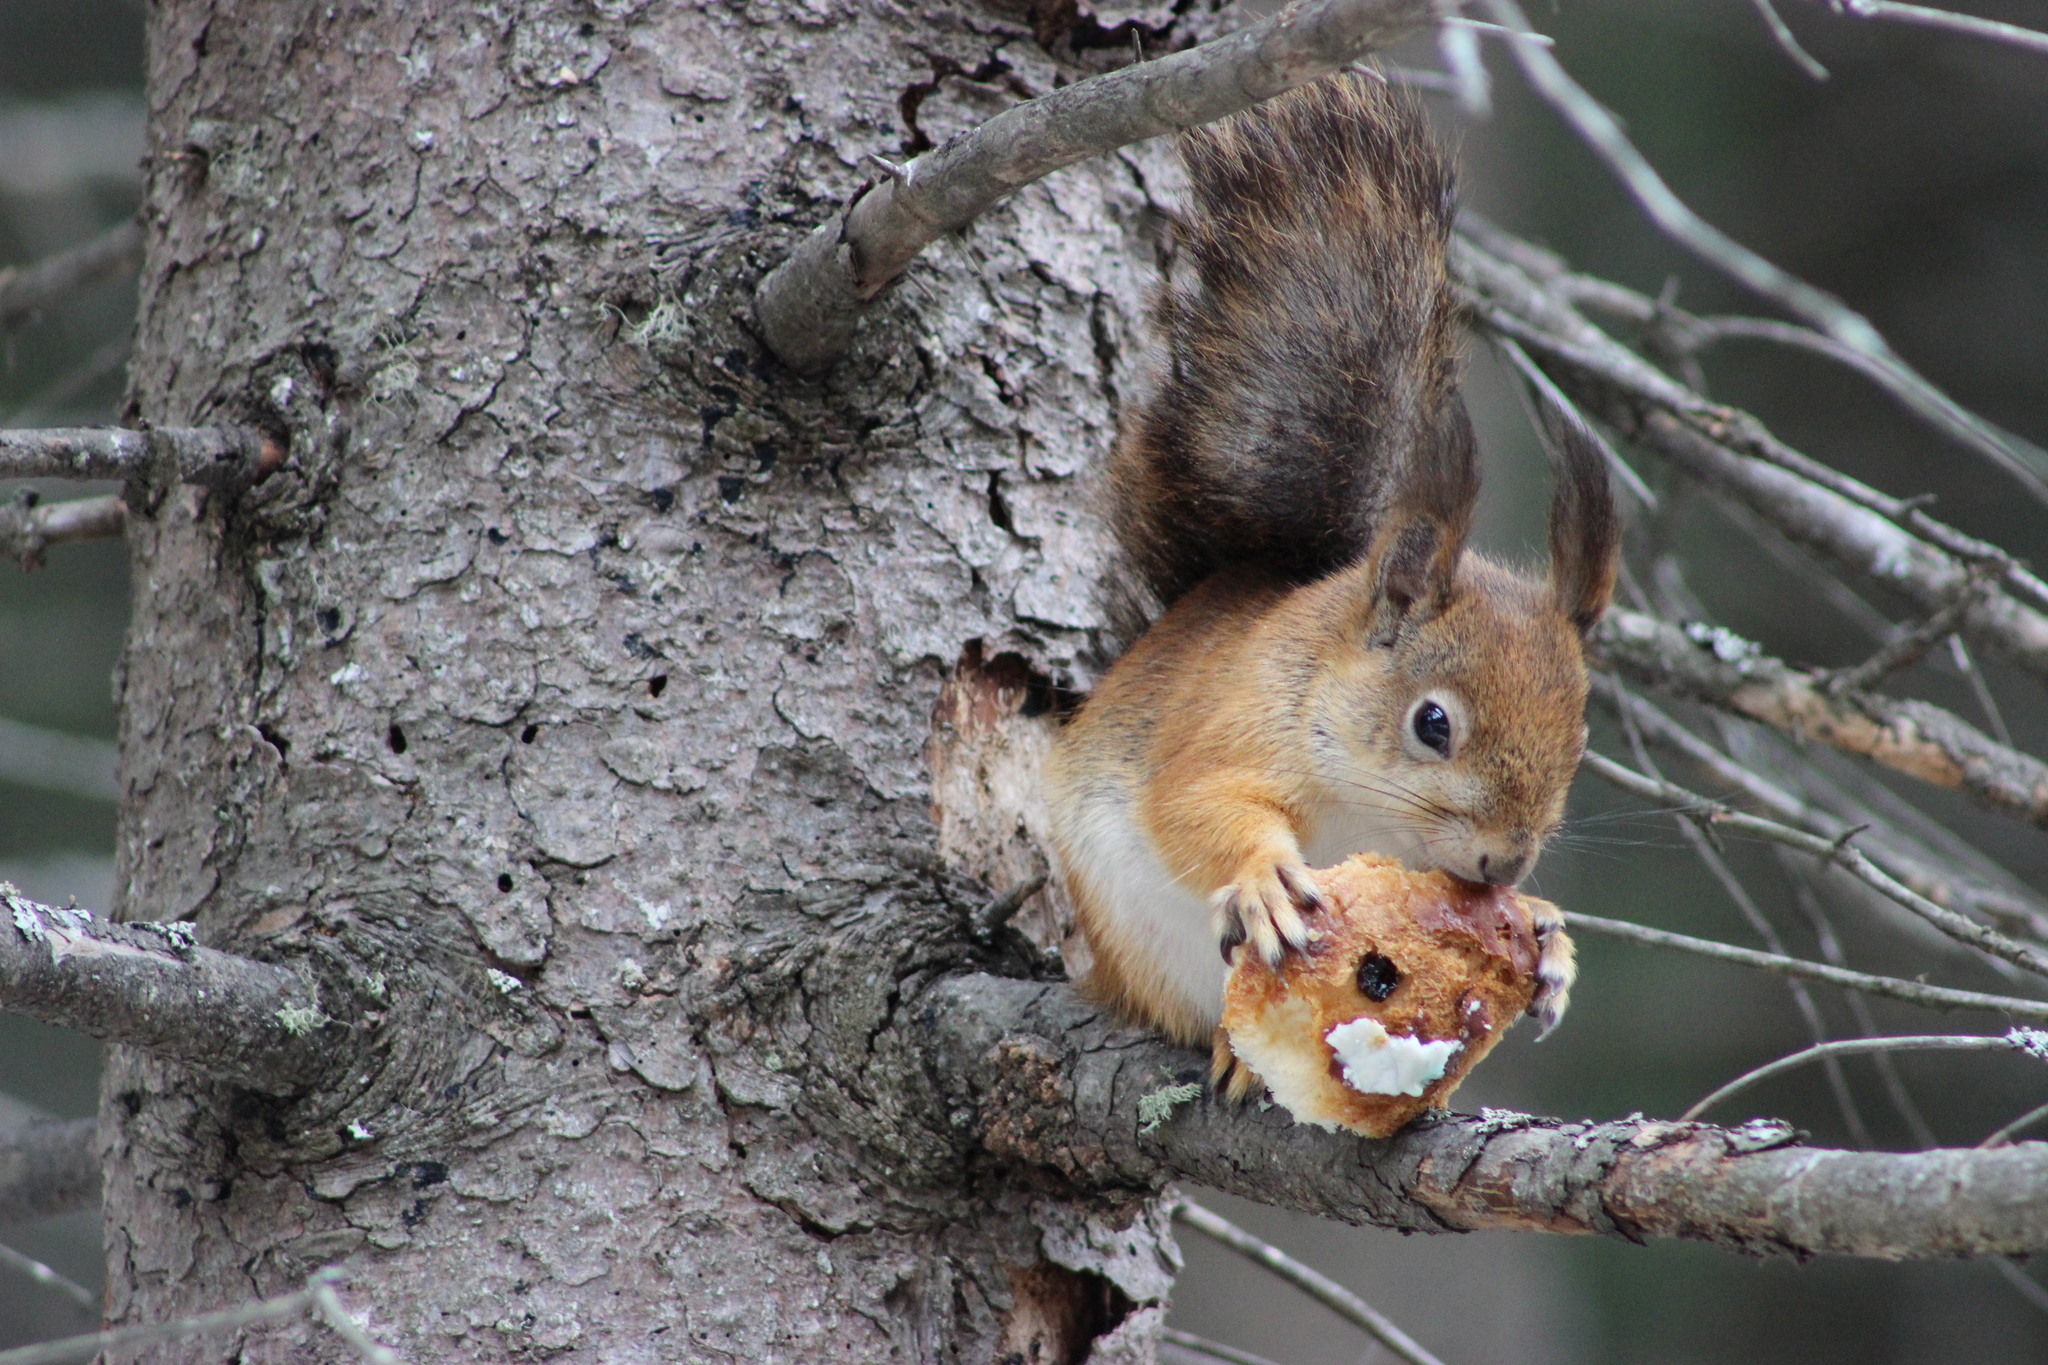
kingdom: Animalia
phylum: Chordata
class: Mammalia
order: Rodentia
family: Sciuridae
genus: Sciurus
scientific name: Sciurus vulgaris
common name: Eurasian red squirrel
